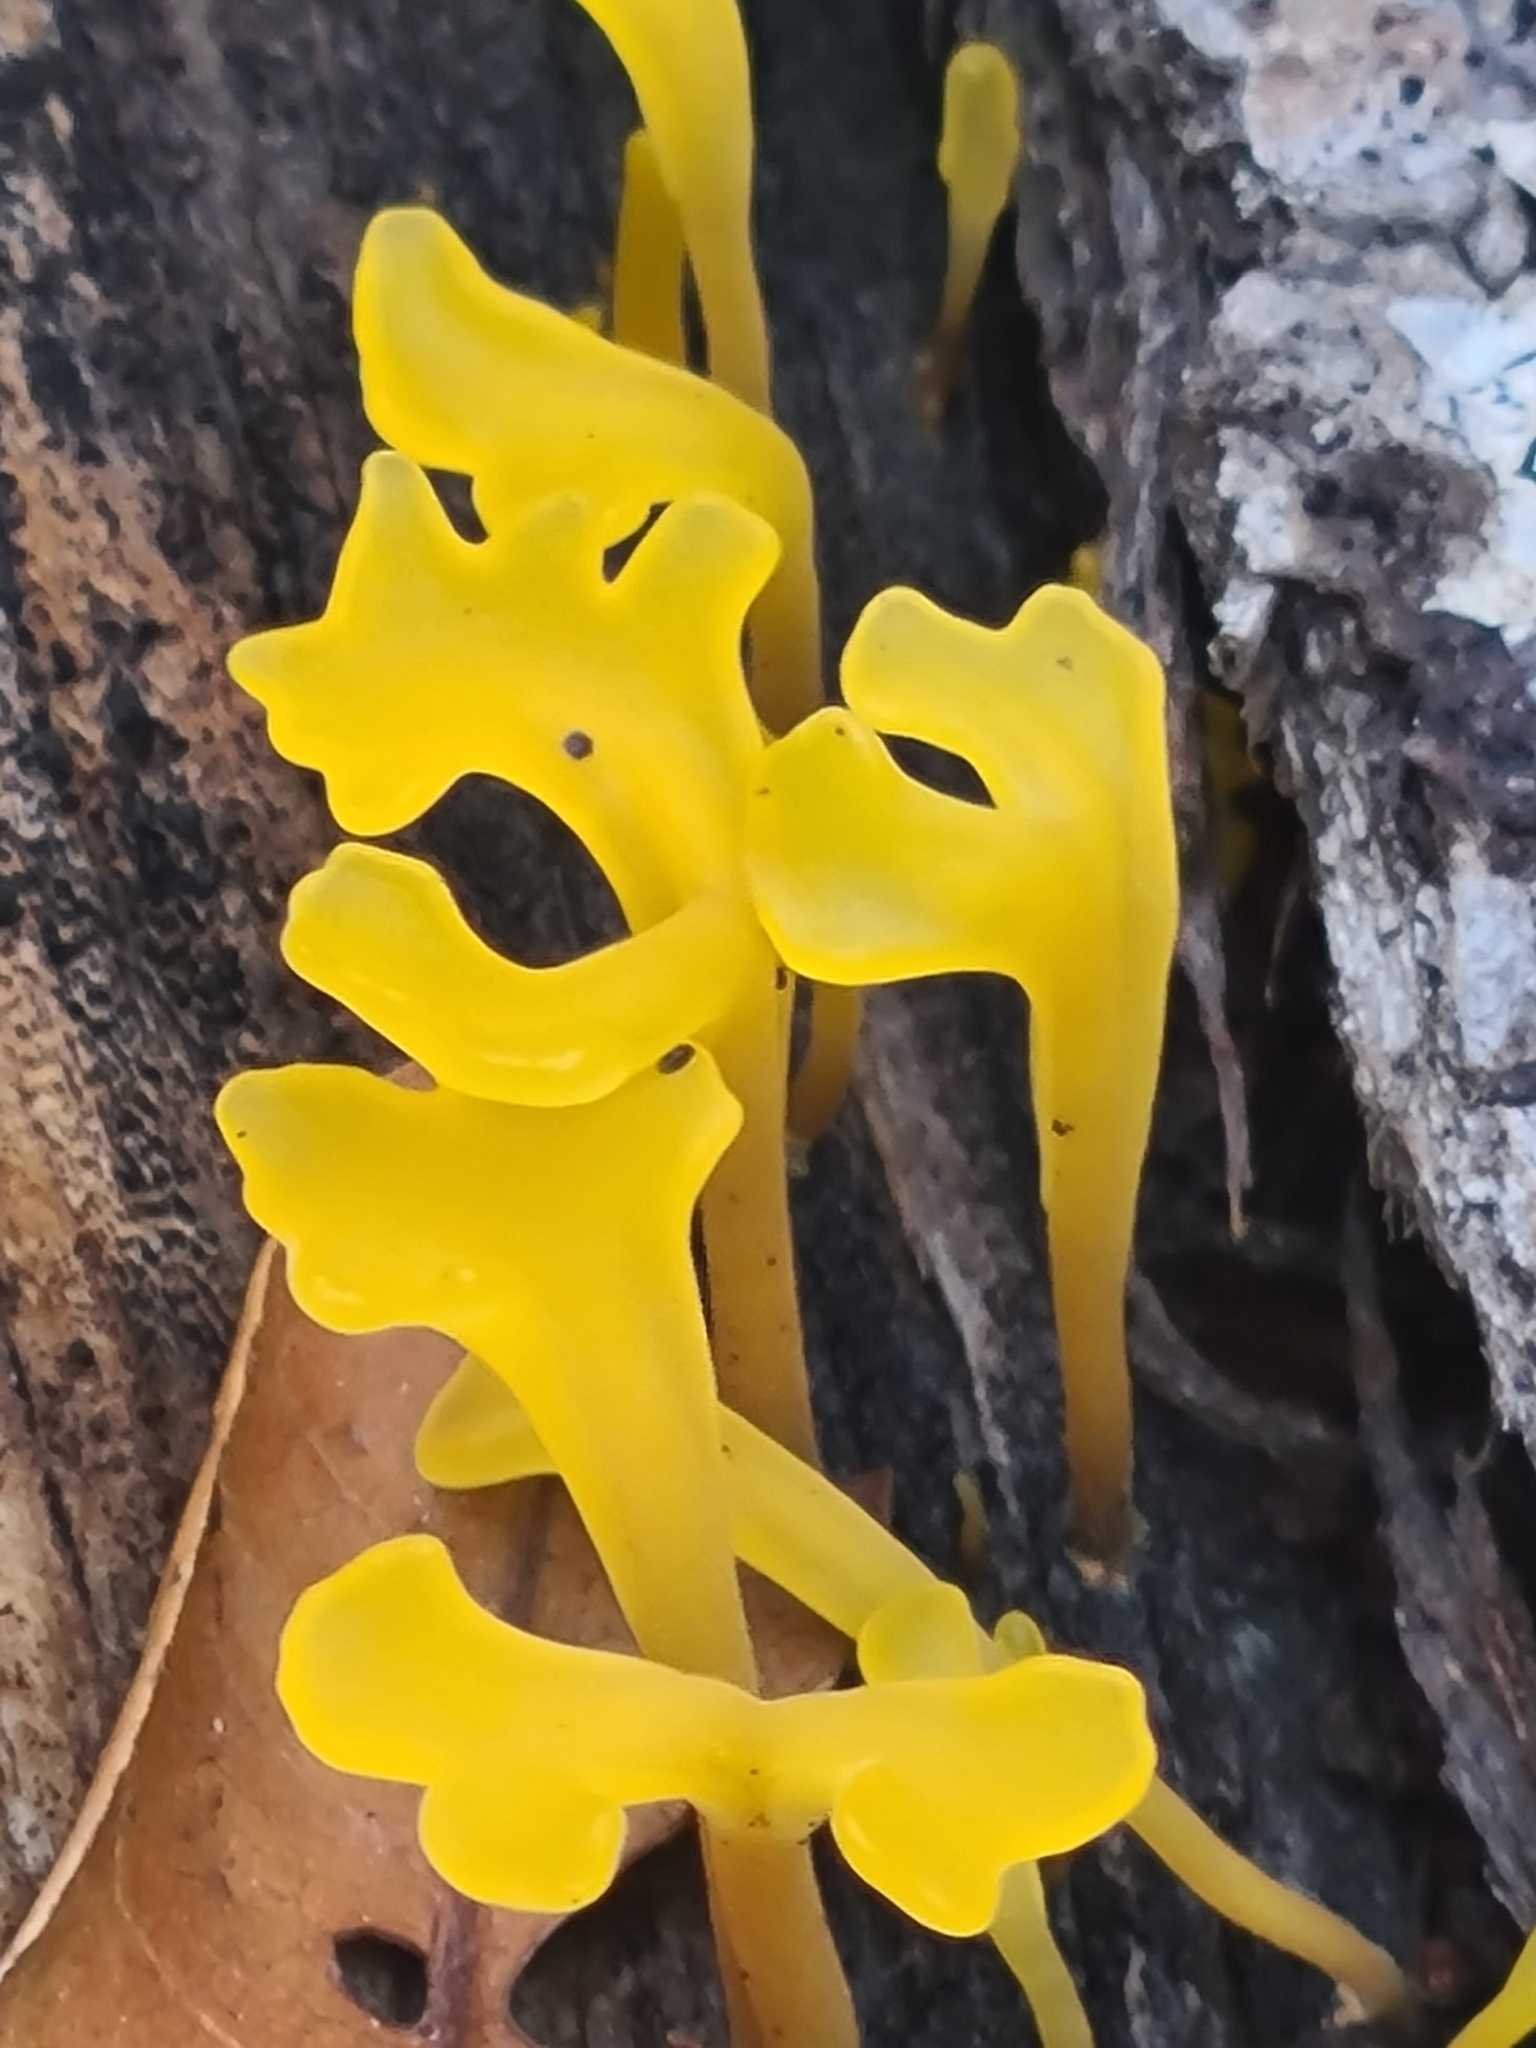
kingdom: Fungi
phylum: Basidiomycota
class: Dacrymycetes
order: Dacrymycetales
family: Dacrymycetaceae
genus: Dacrymyces
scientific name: Dacrymyces spathularius
